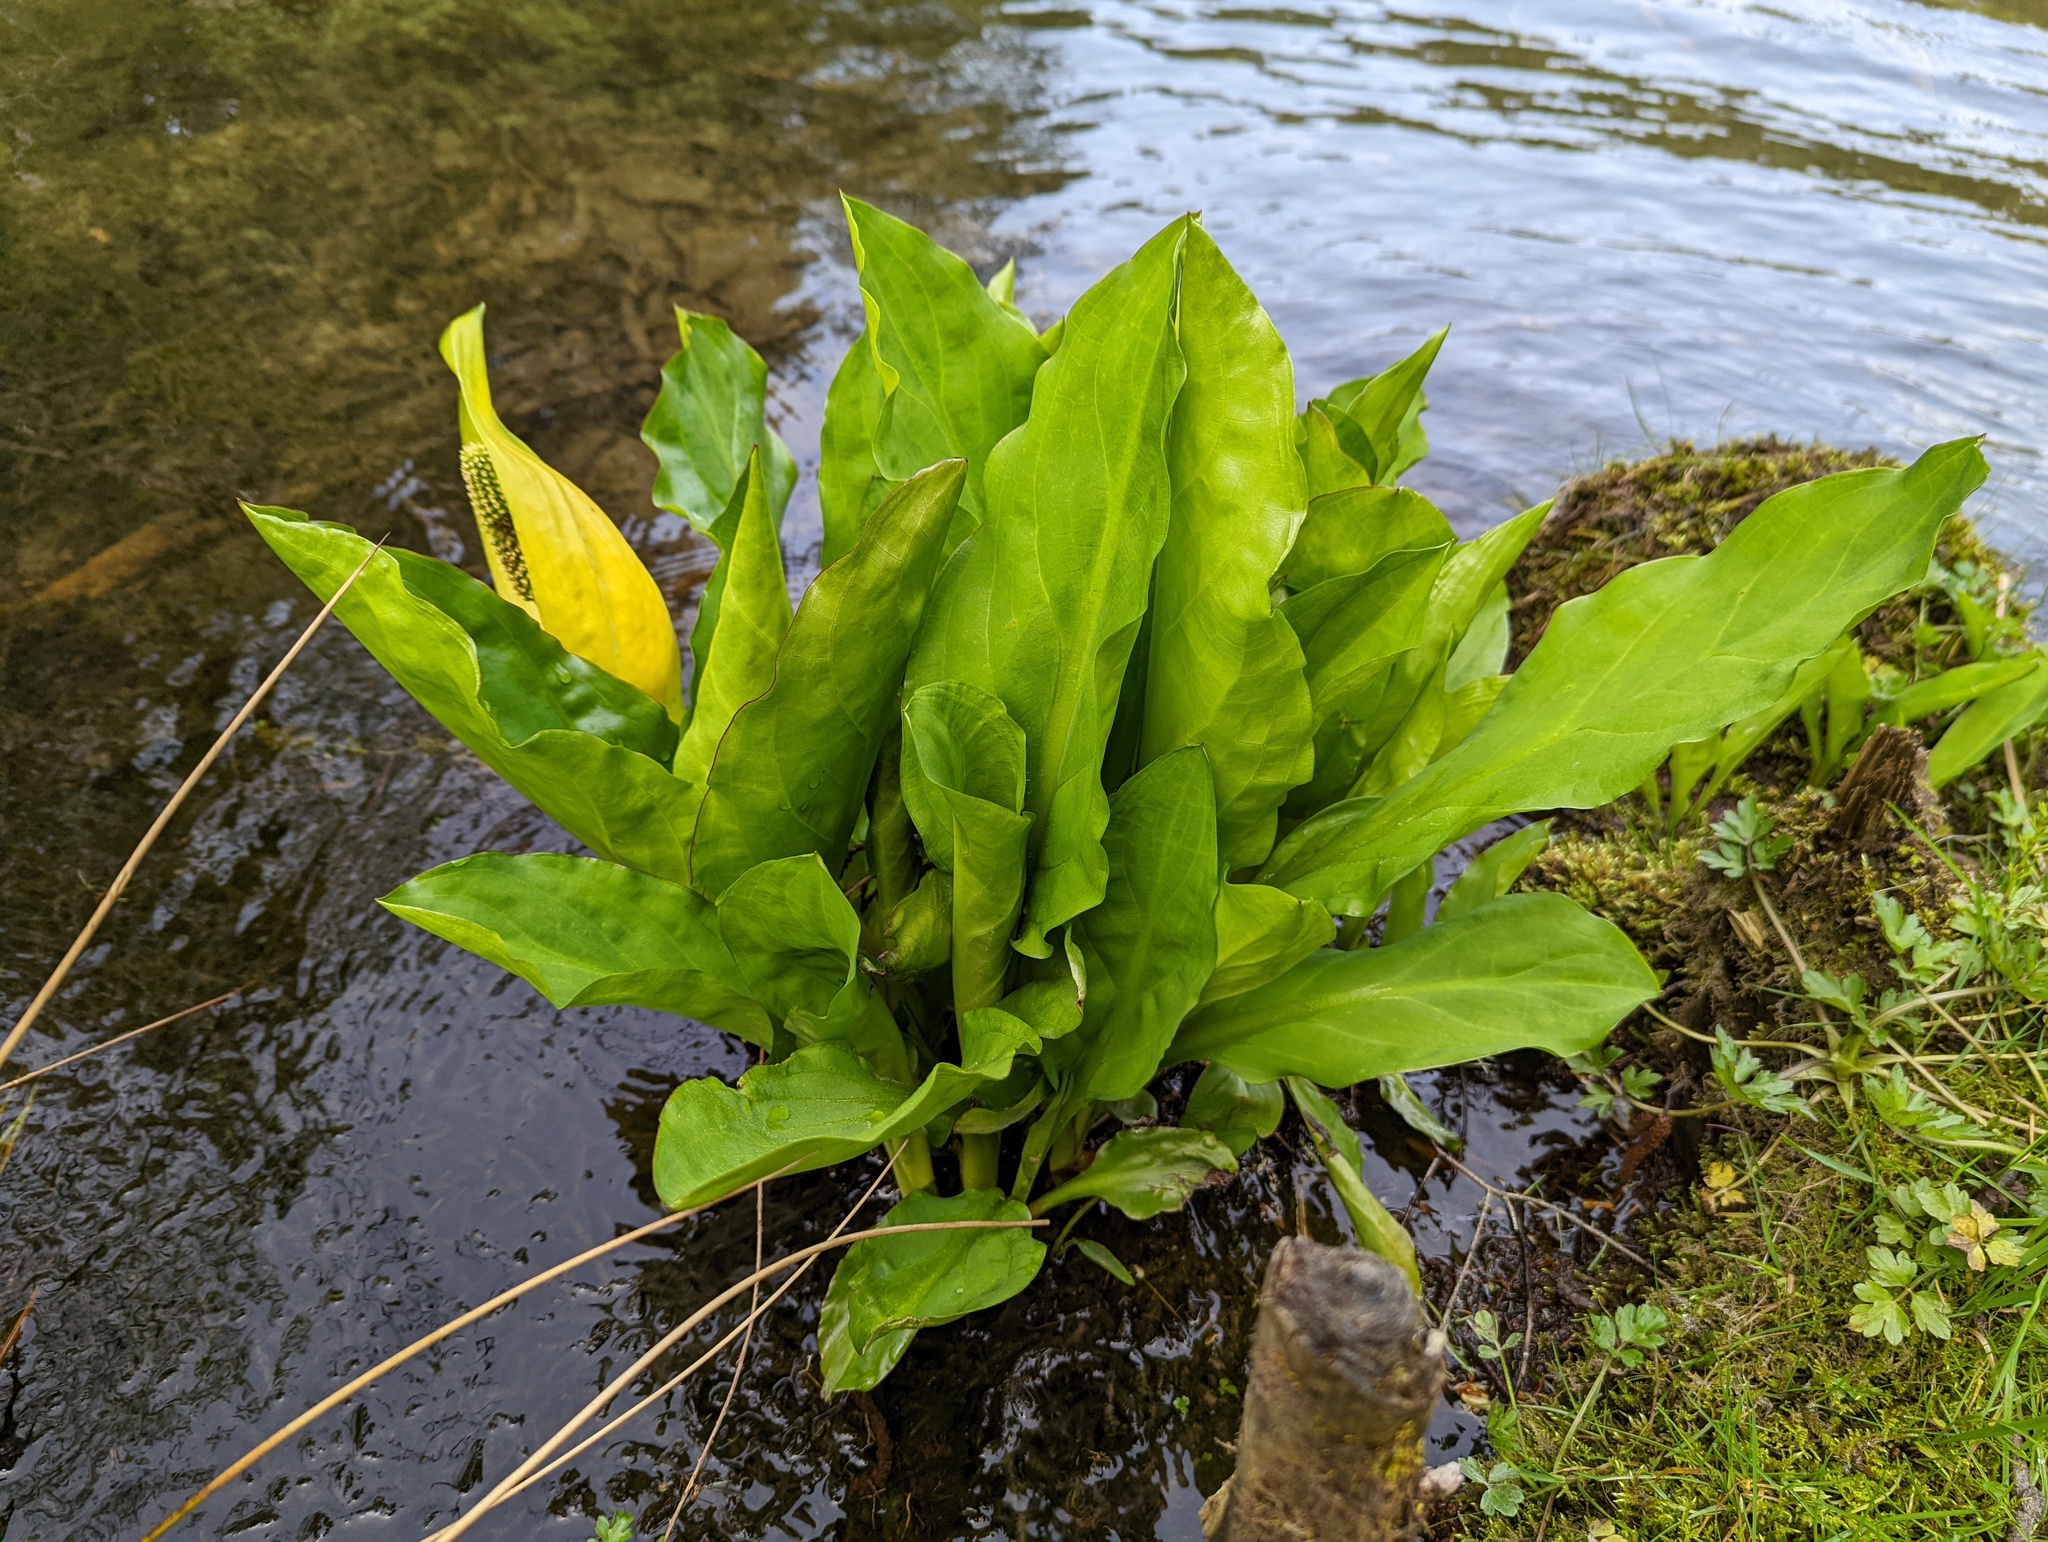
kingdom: Plantae
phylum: Tracheophyta
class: Liliopsida
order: Alismatales
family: Araceae
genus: Lysichiton
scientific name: Lysichiton americanus
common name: American skunk cabbage
